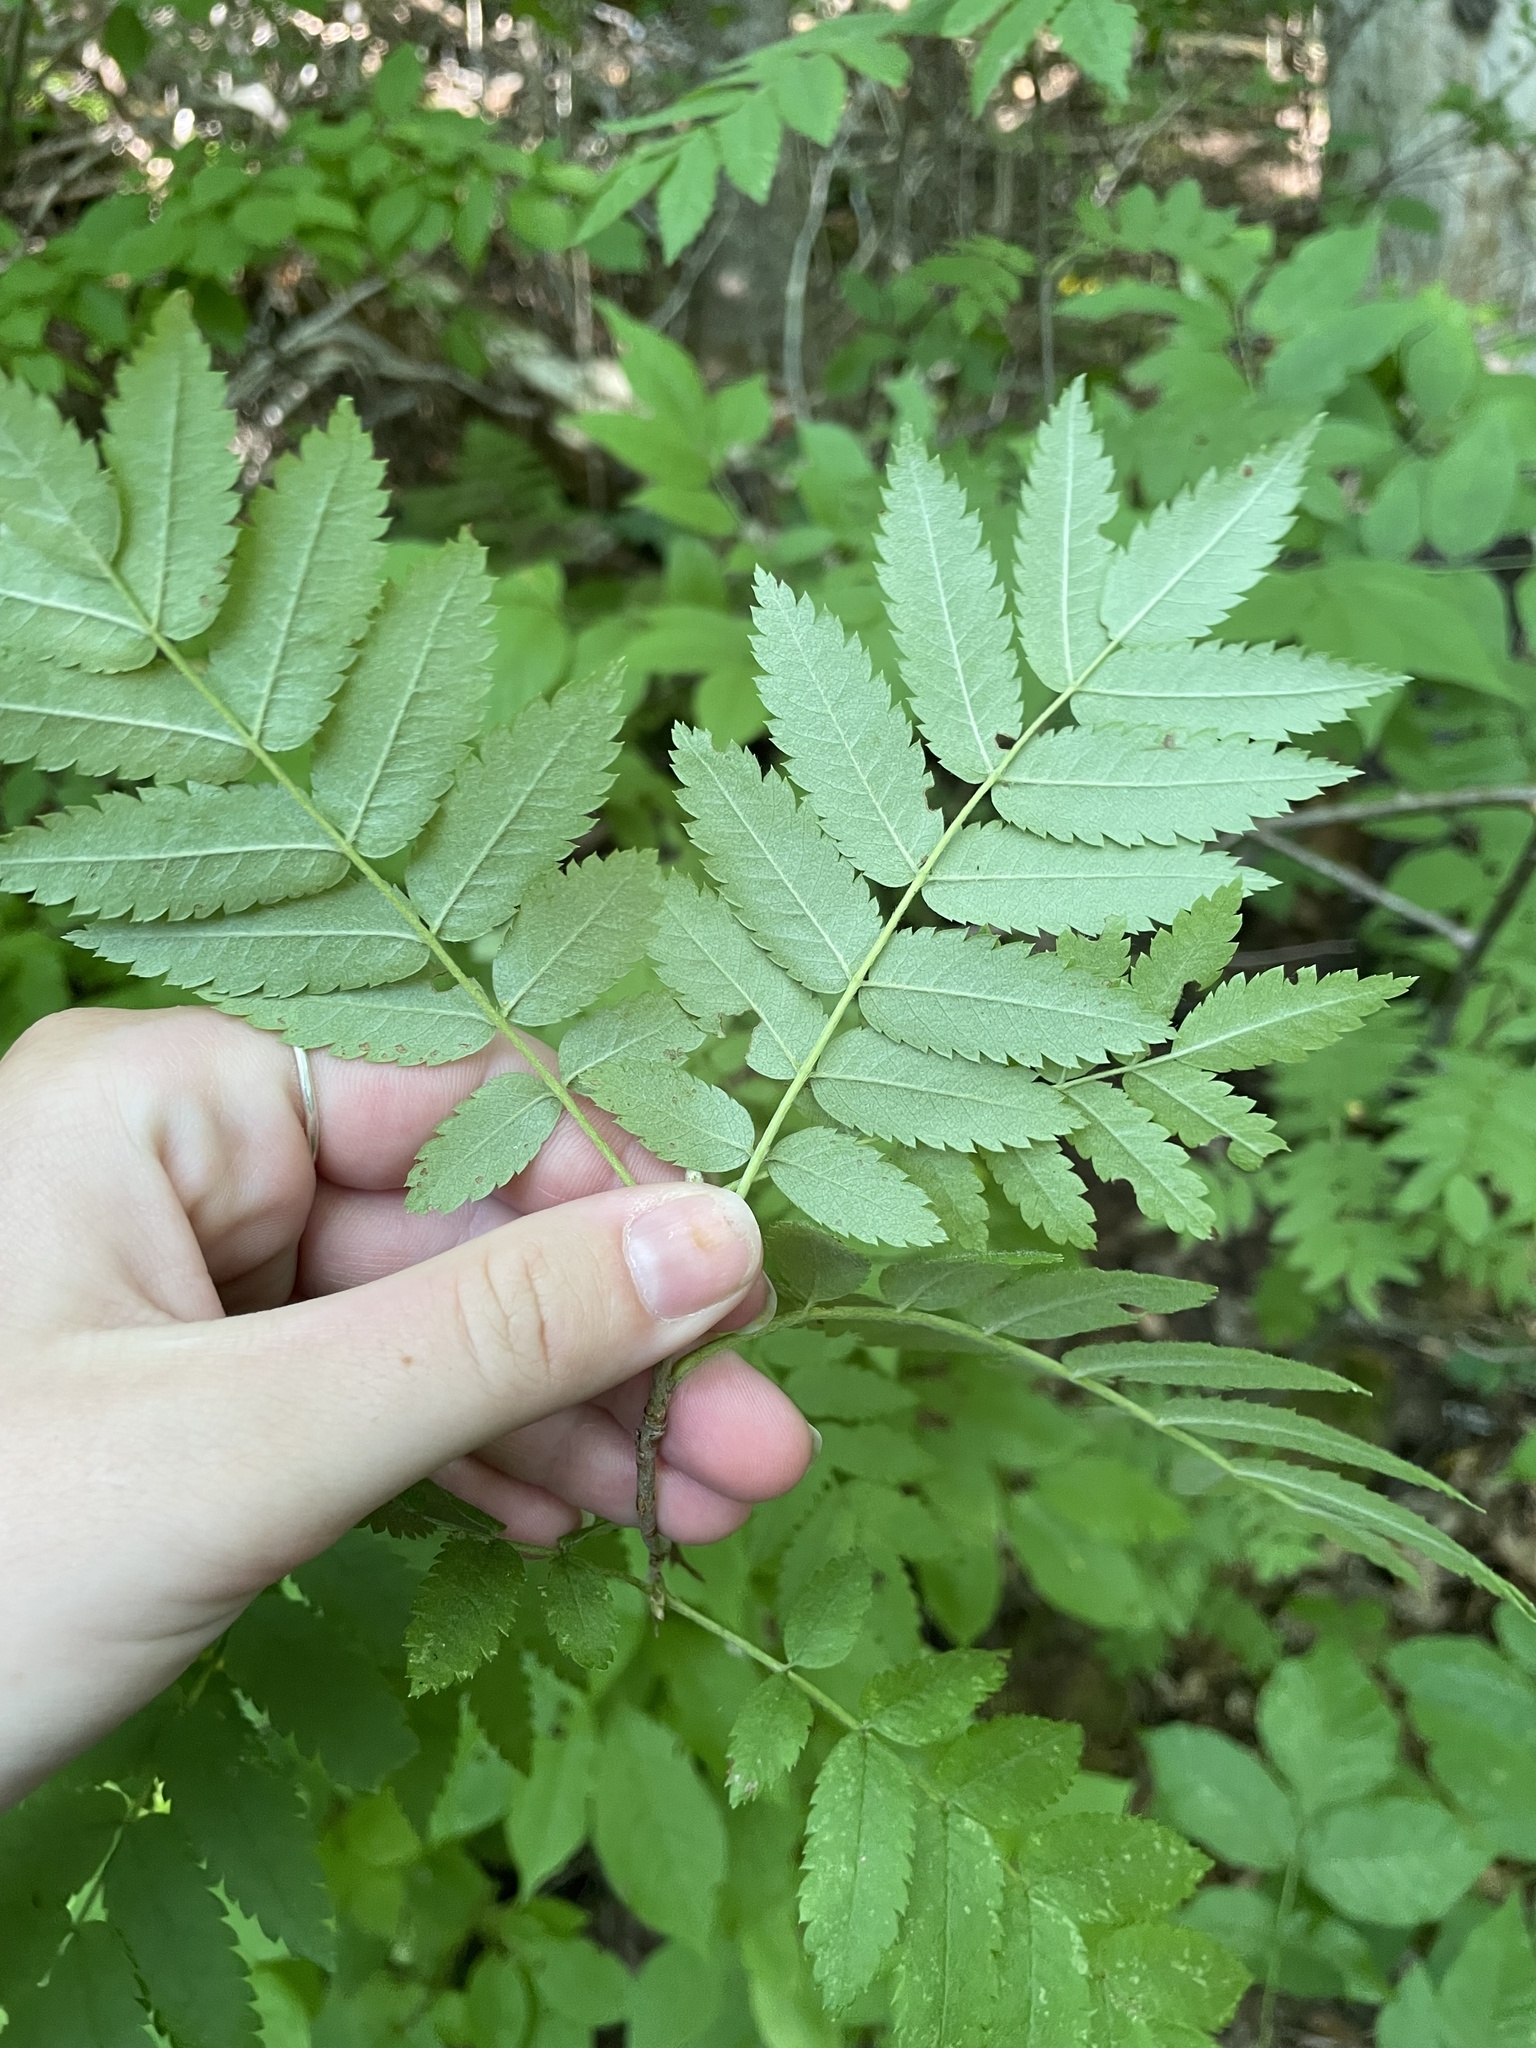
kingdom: Plantae
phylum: Tracheophyta
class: Magnoliopsida
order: Rosales
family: Rosaceae
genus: Sorbus
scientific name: Sorbus americana
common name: American mountain-ash
